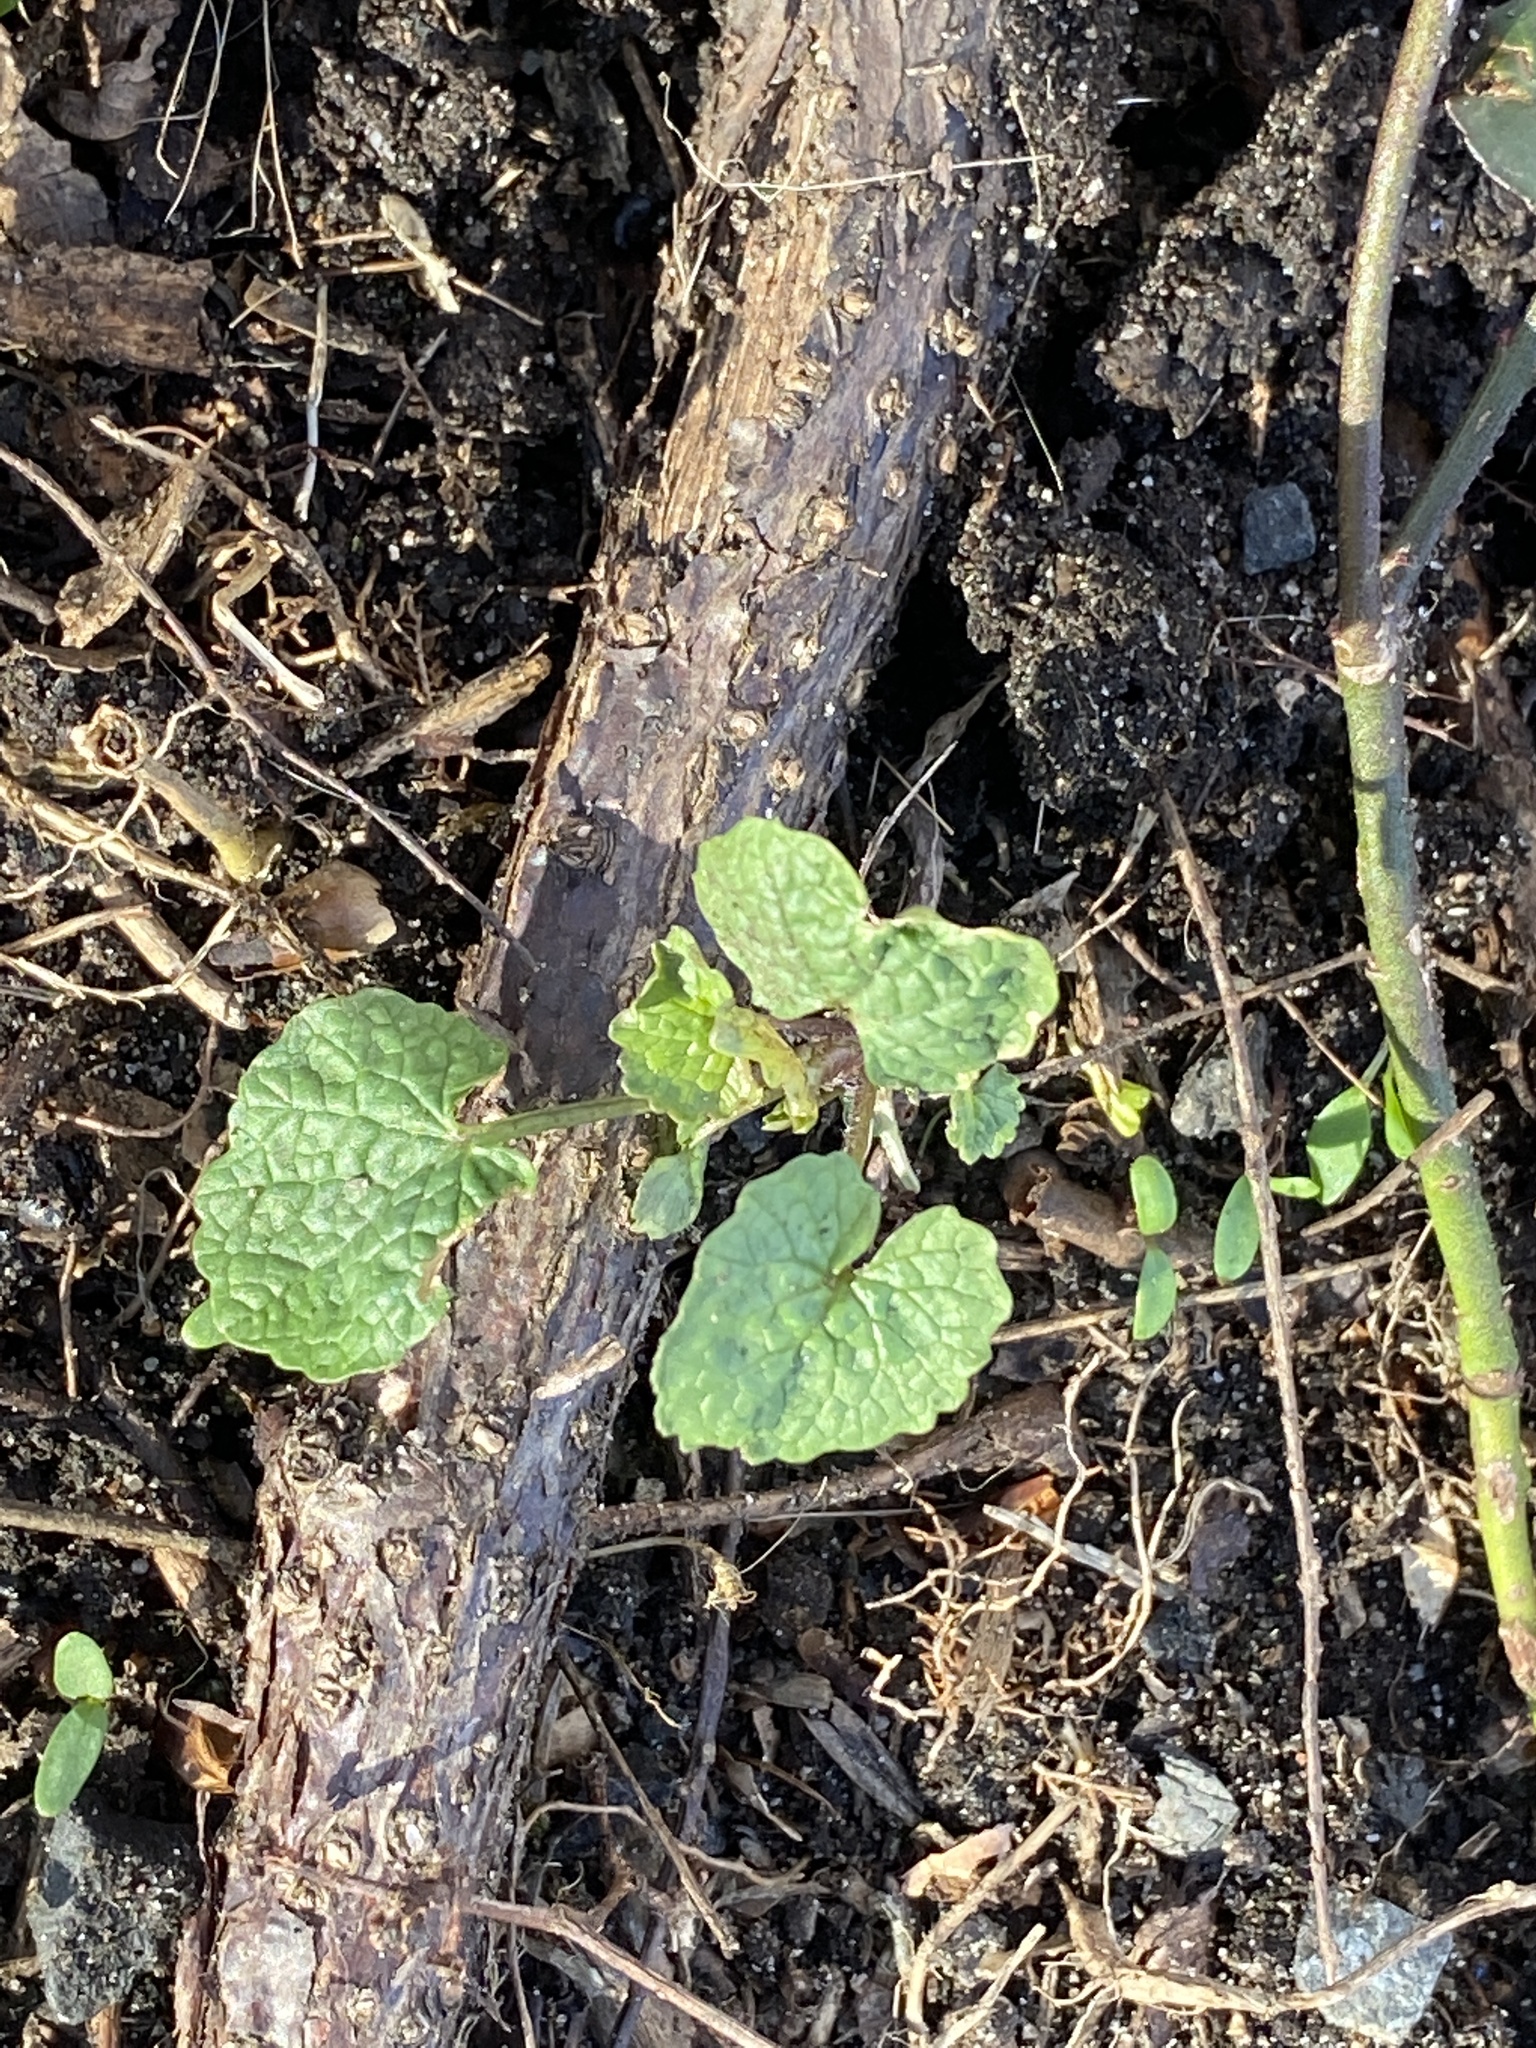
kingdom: Plantae
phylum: Tracheophyta
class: Magnoliopsida
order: Brassicales
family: Brassicaceae
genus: Alliaria
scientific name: Alliaria petiolata
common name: Garlic mustard
